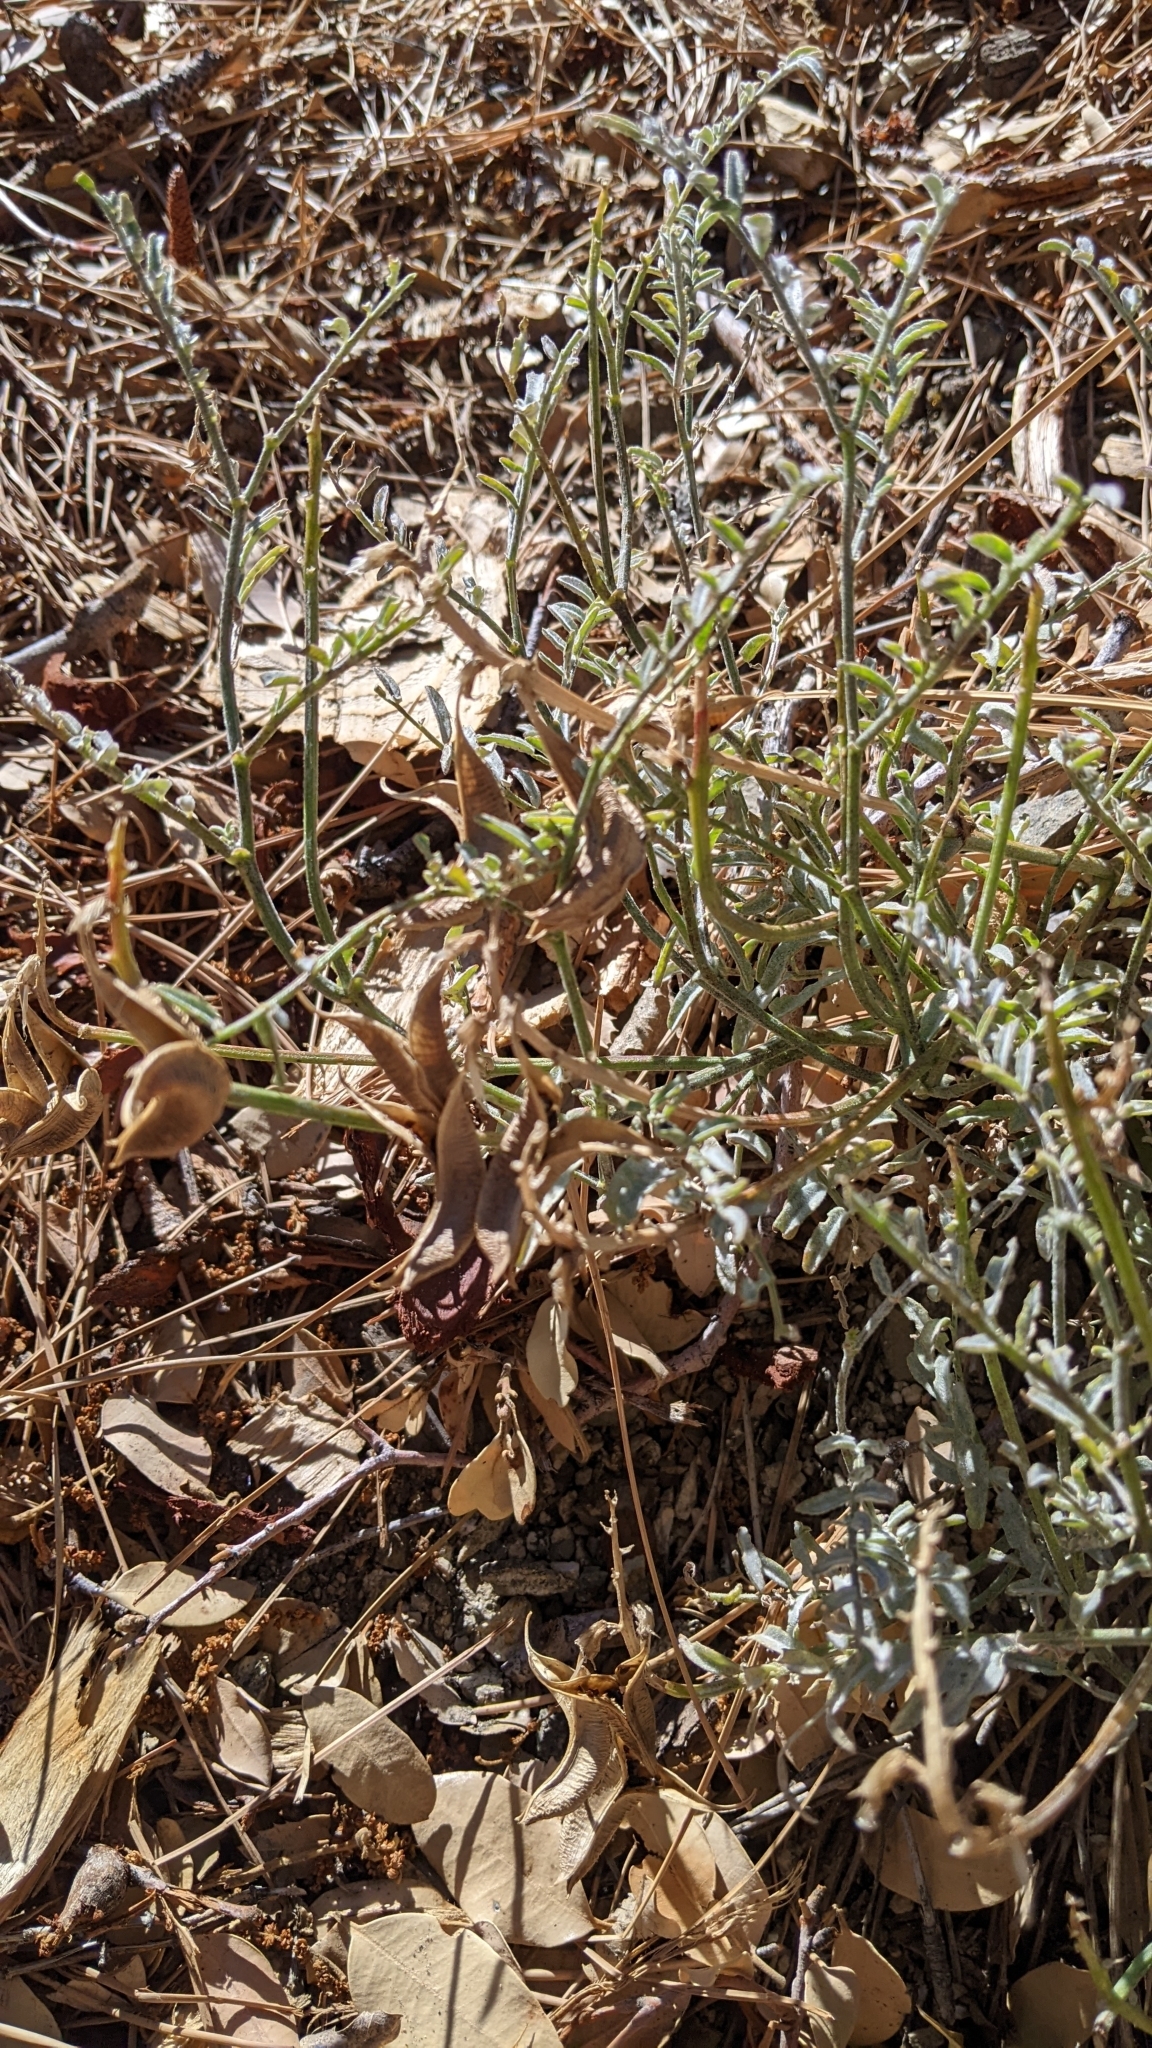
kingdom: Plantae
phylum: Tracheophyta
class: Magnoliopsida
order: Fabales
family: Fabaceae
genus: Astragalus
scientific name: Astragalus bicristatus
